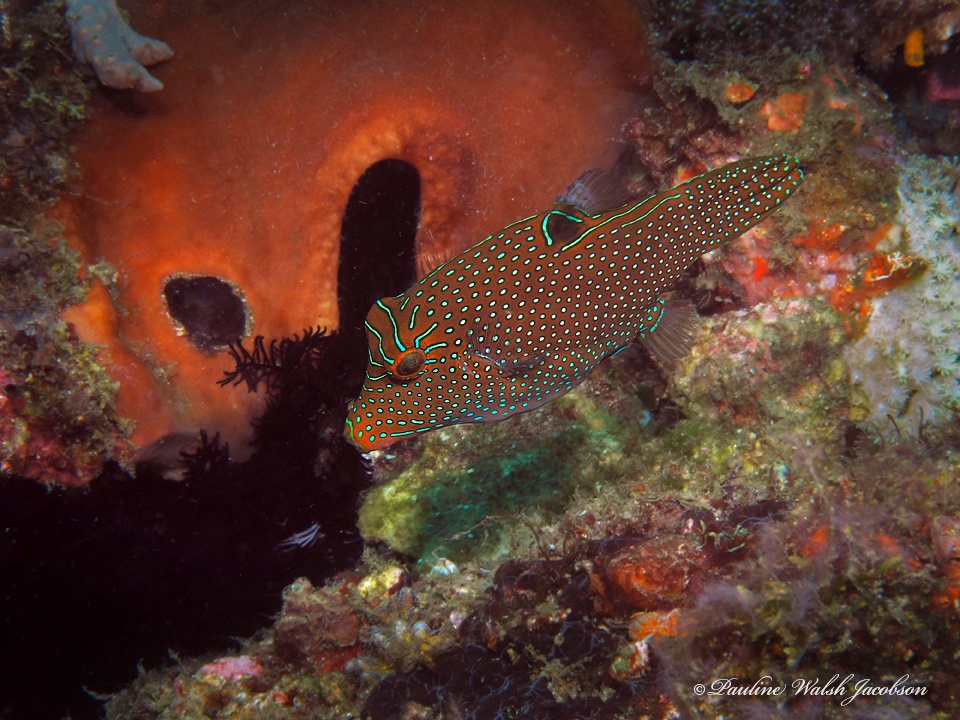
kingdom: Animalia
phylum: Chordata
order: Tetraodontiformes
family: Tetraodontidae
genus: Canthigaster
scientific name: Canthigaster papua
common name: False-eyed pufferfish
